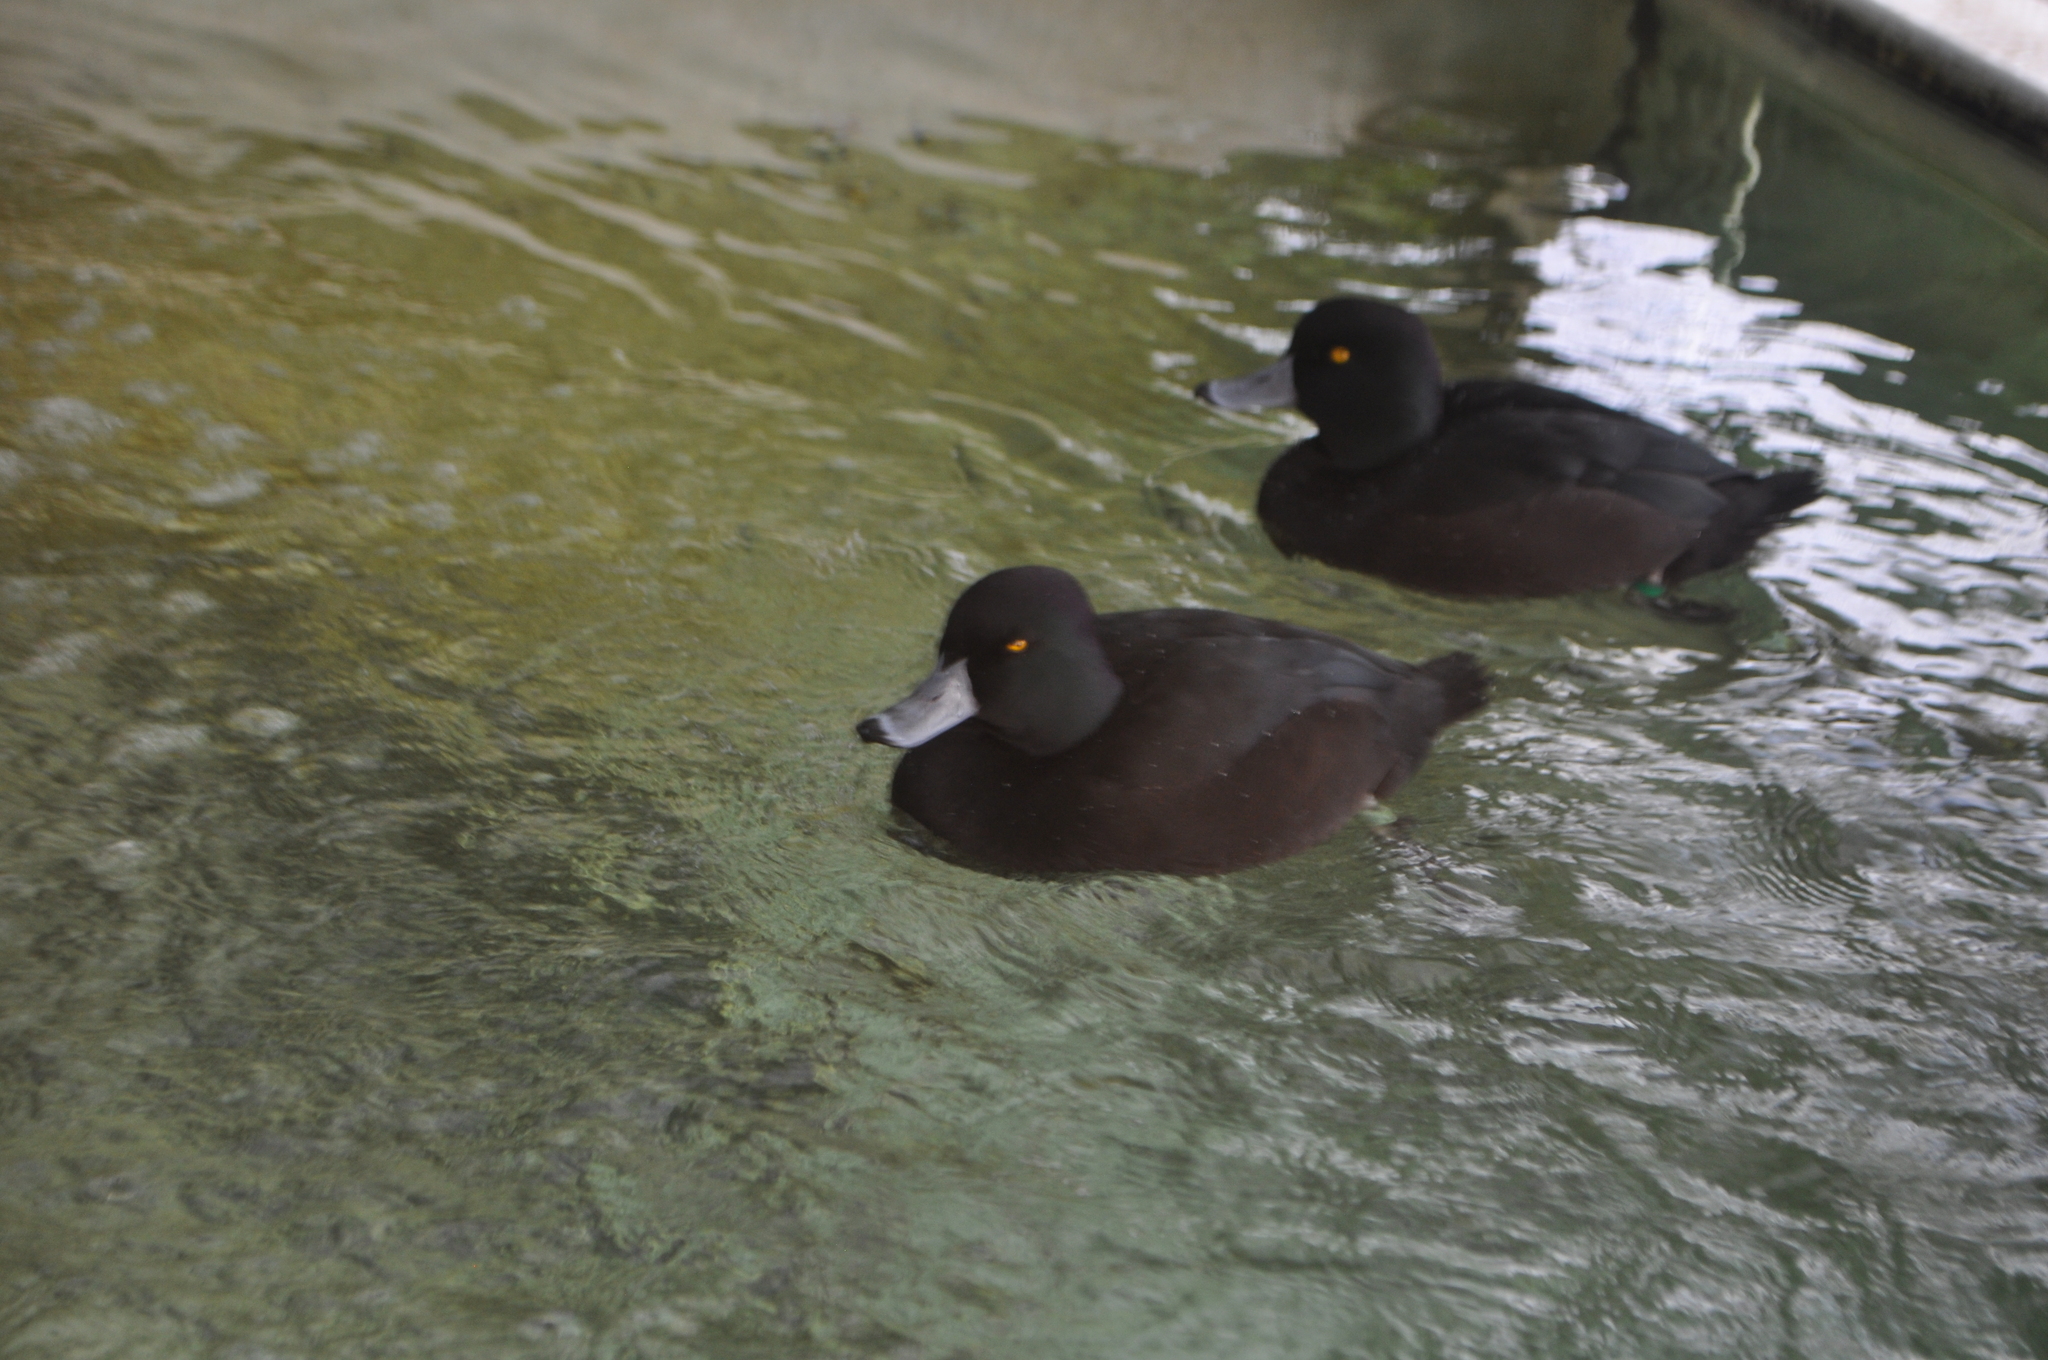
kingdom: Animalia
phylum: Chordata
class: Aves
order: Anseriformes
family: Anatidae
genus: Aythya
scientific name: Aythya novaeseelandiae
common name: New zealand scaup
